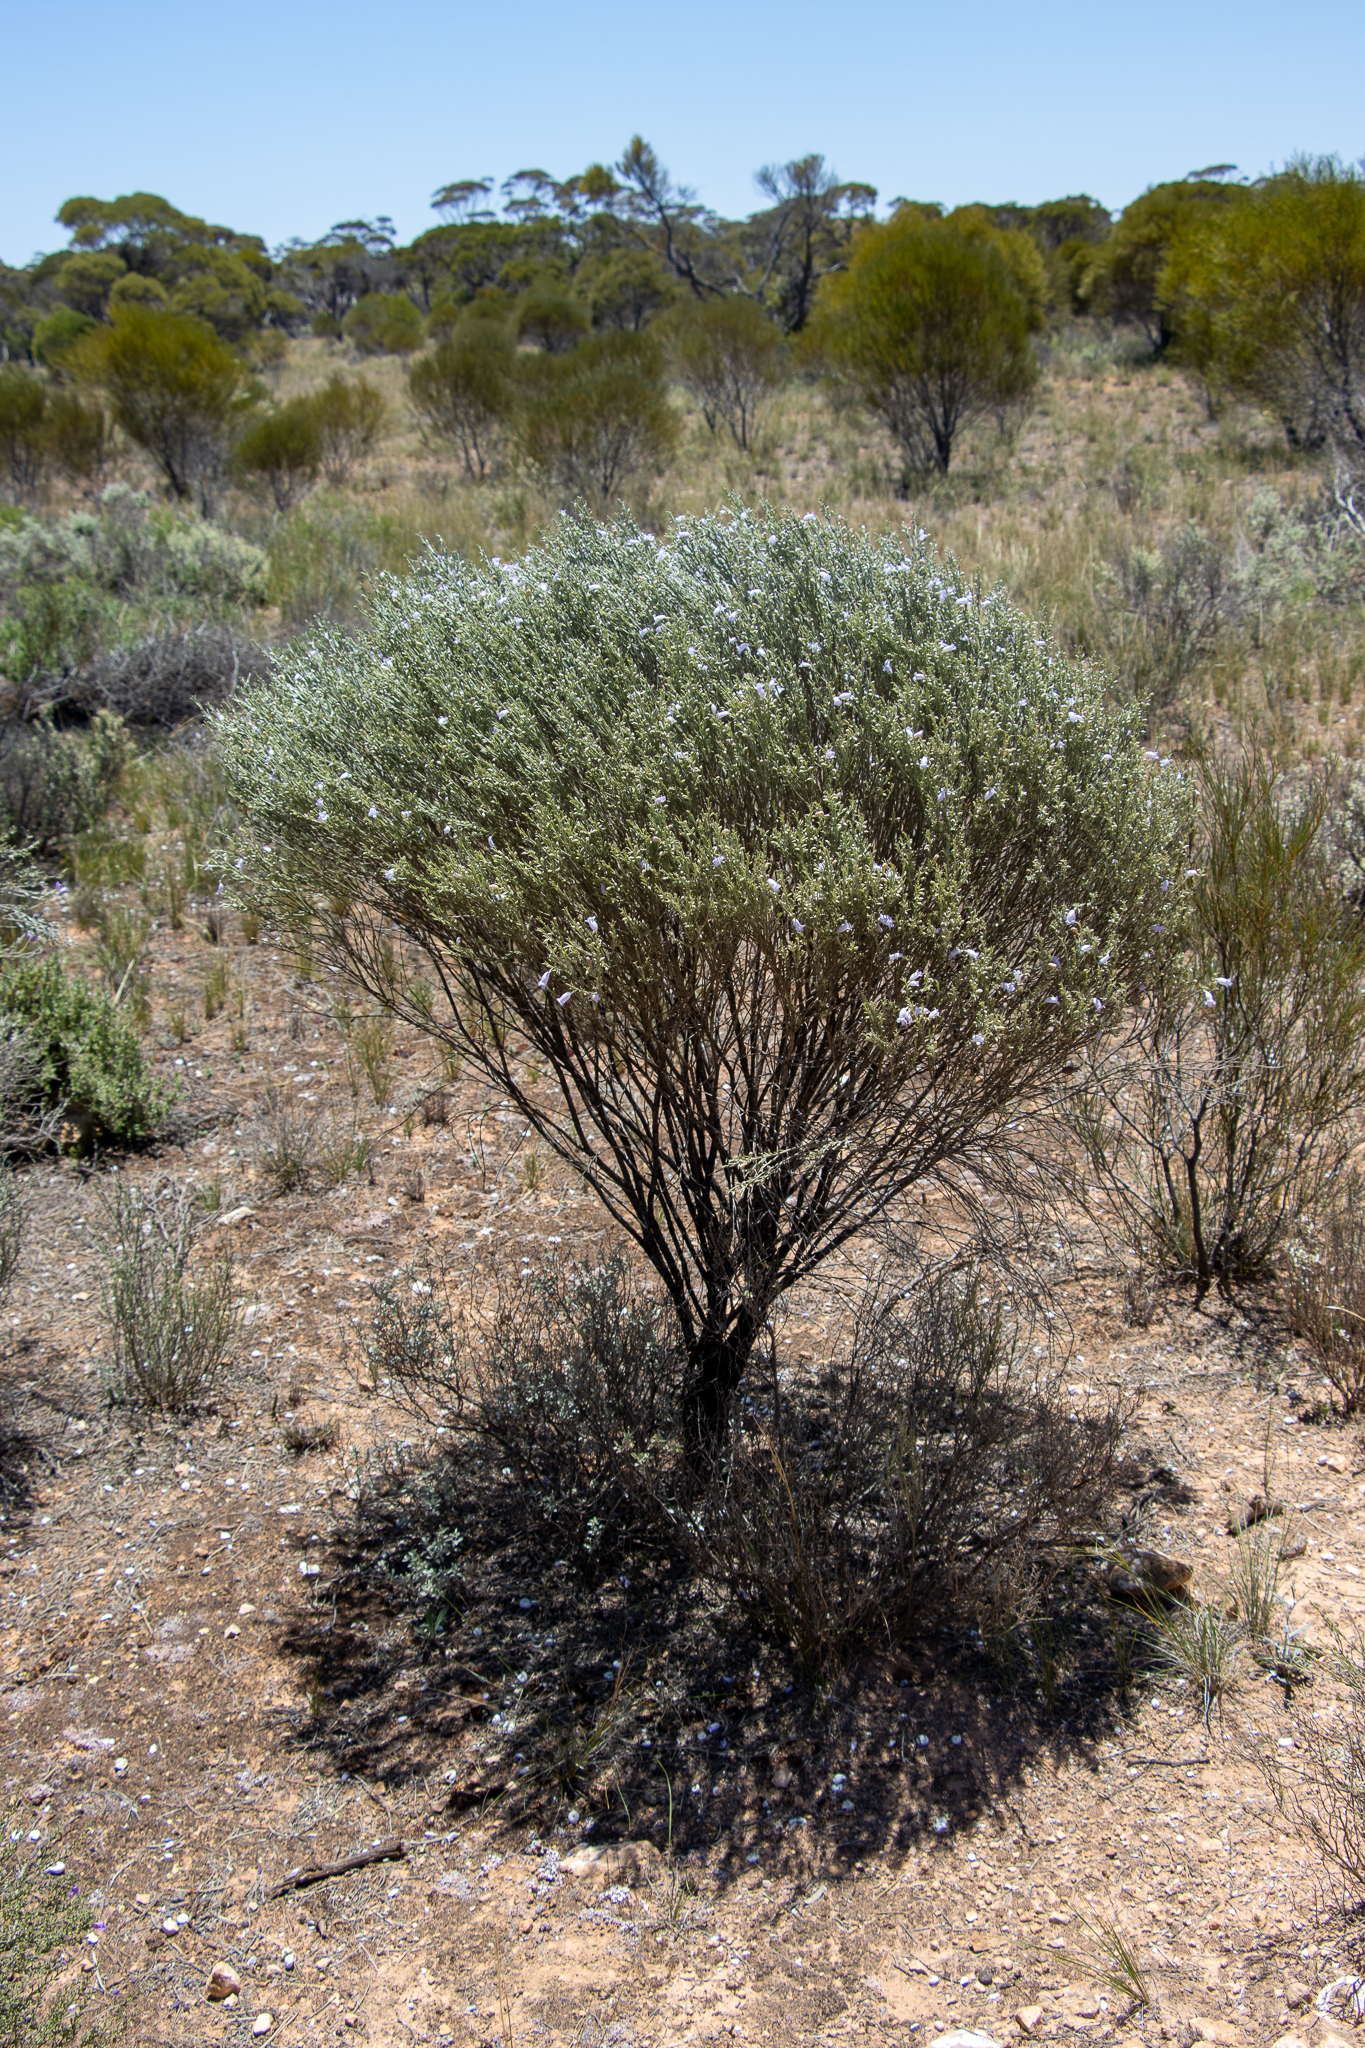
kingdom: Plantae
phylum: Tracheophyta
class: Magnoliopsida
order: Lamiales
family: Scrophulariaceae
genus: Eremophila
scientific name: Eremophila scoparia
